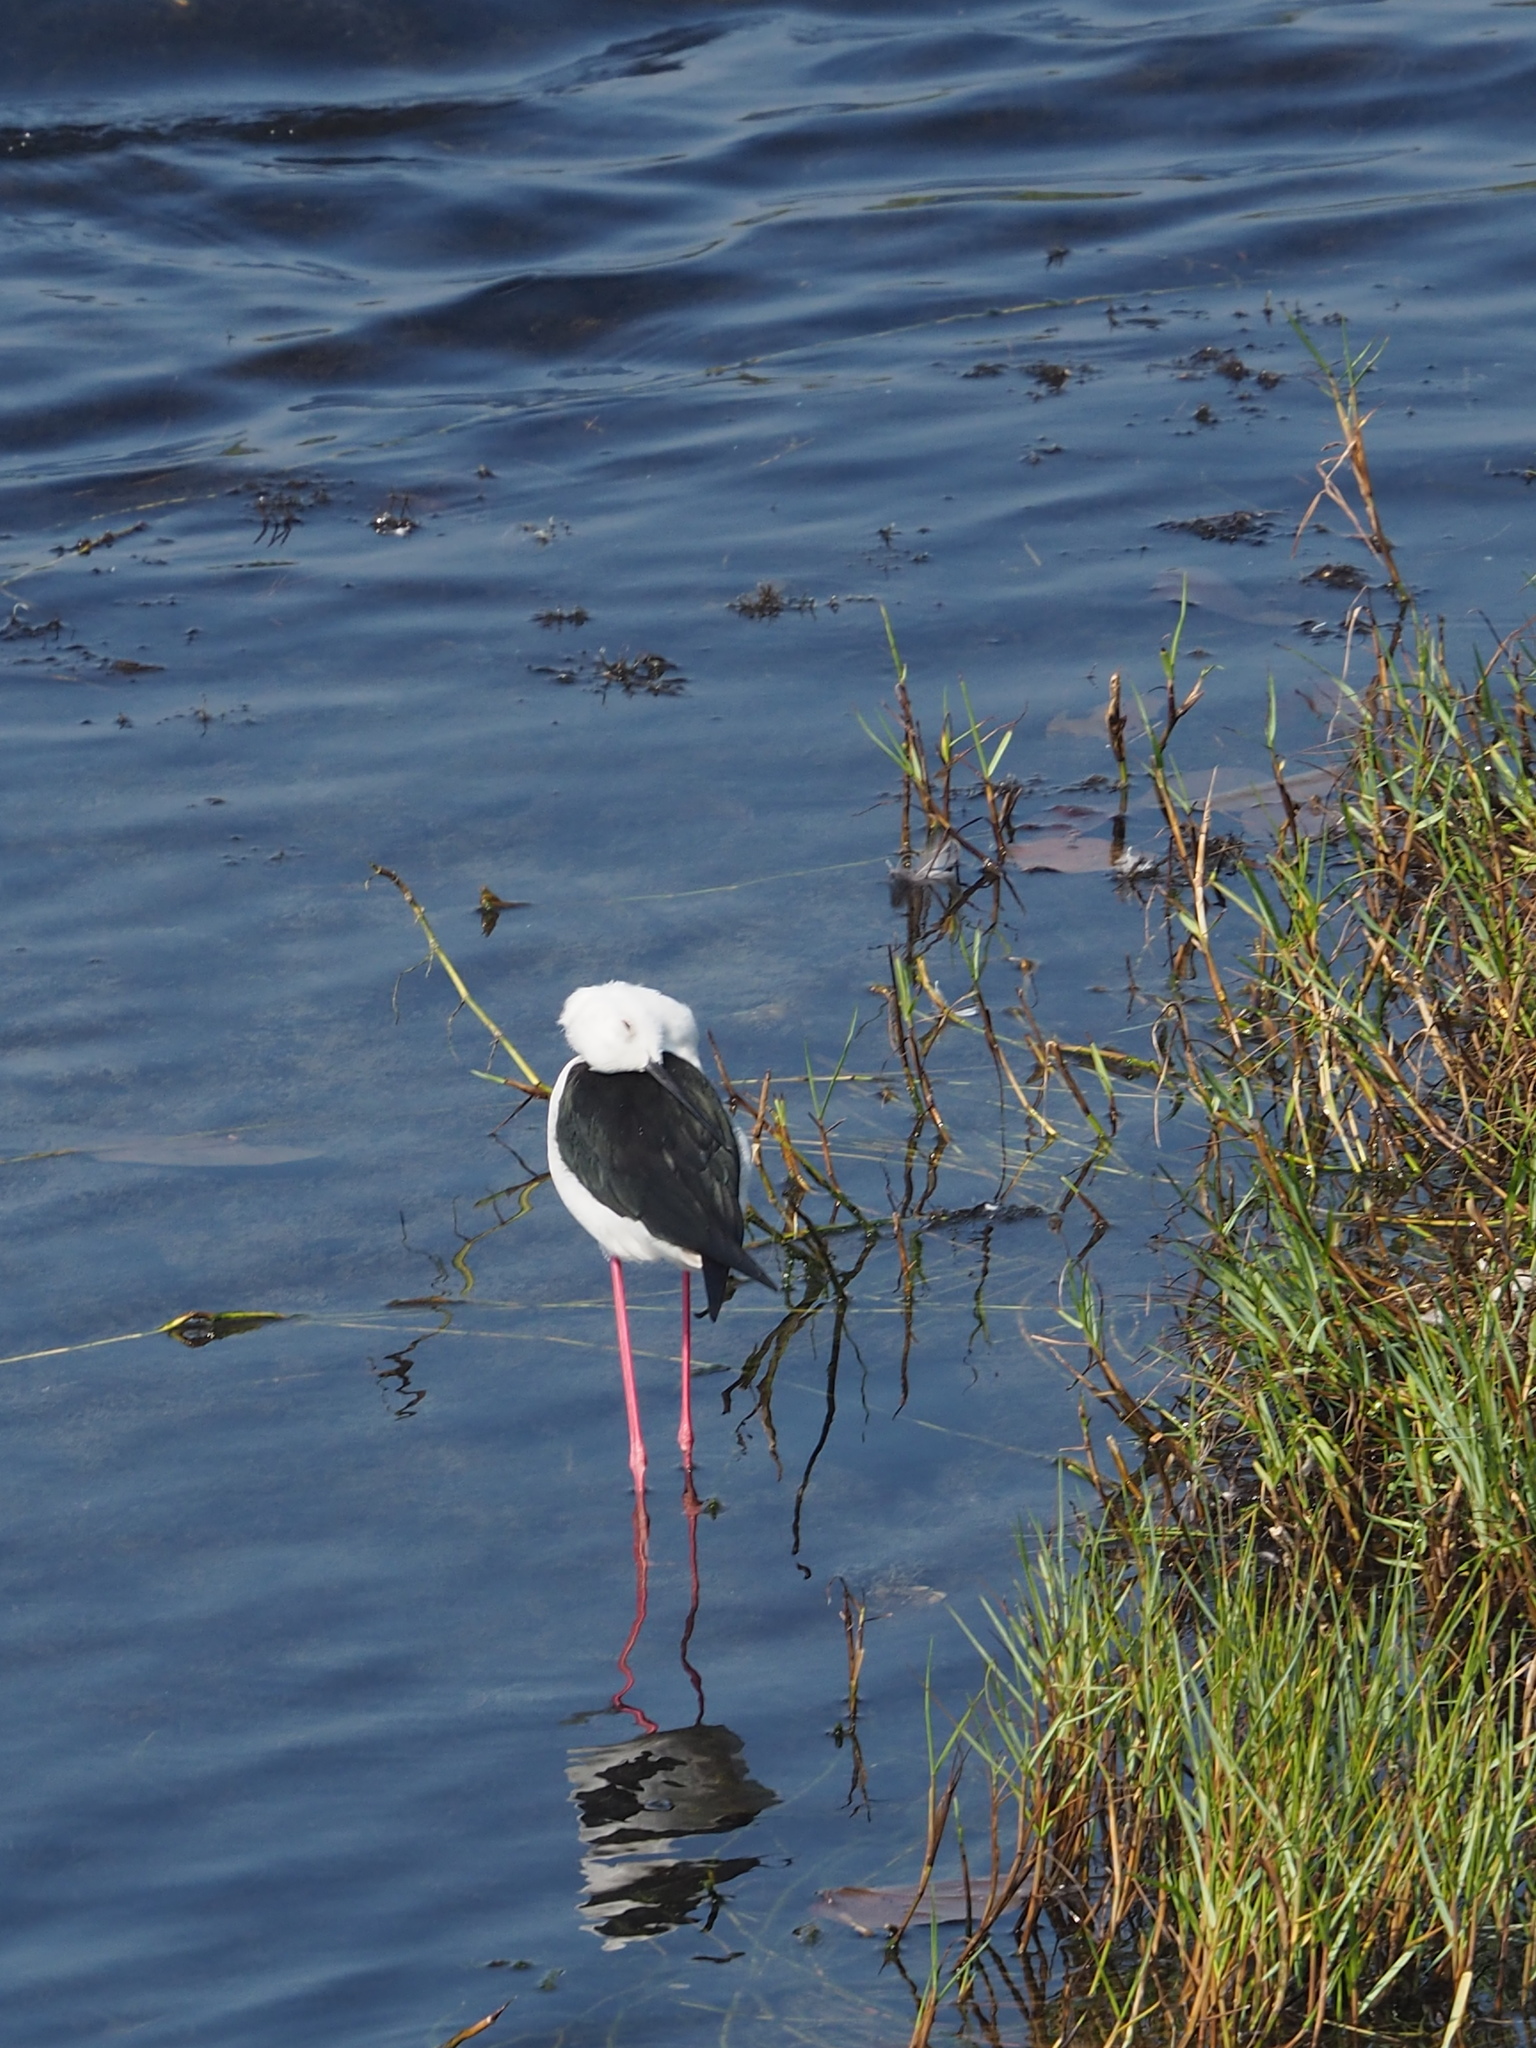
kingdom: Animalia
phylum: Chordata
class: Aves
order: Charadriiformes
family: Recurvirostridae
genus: Himantopus
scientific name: Himantopus himantopus
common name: Black-winged stilt
